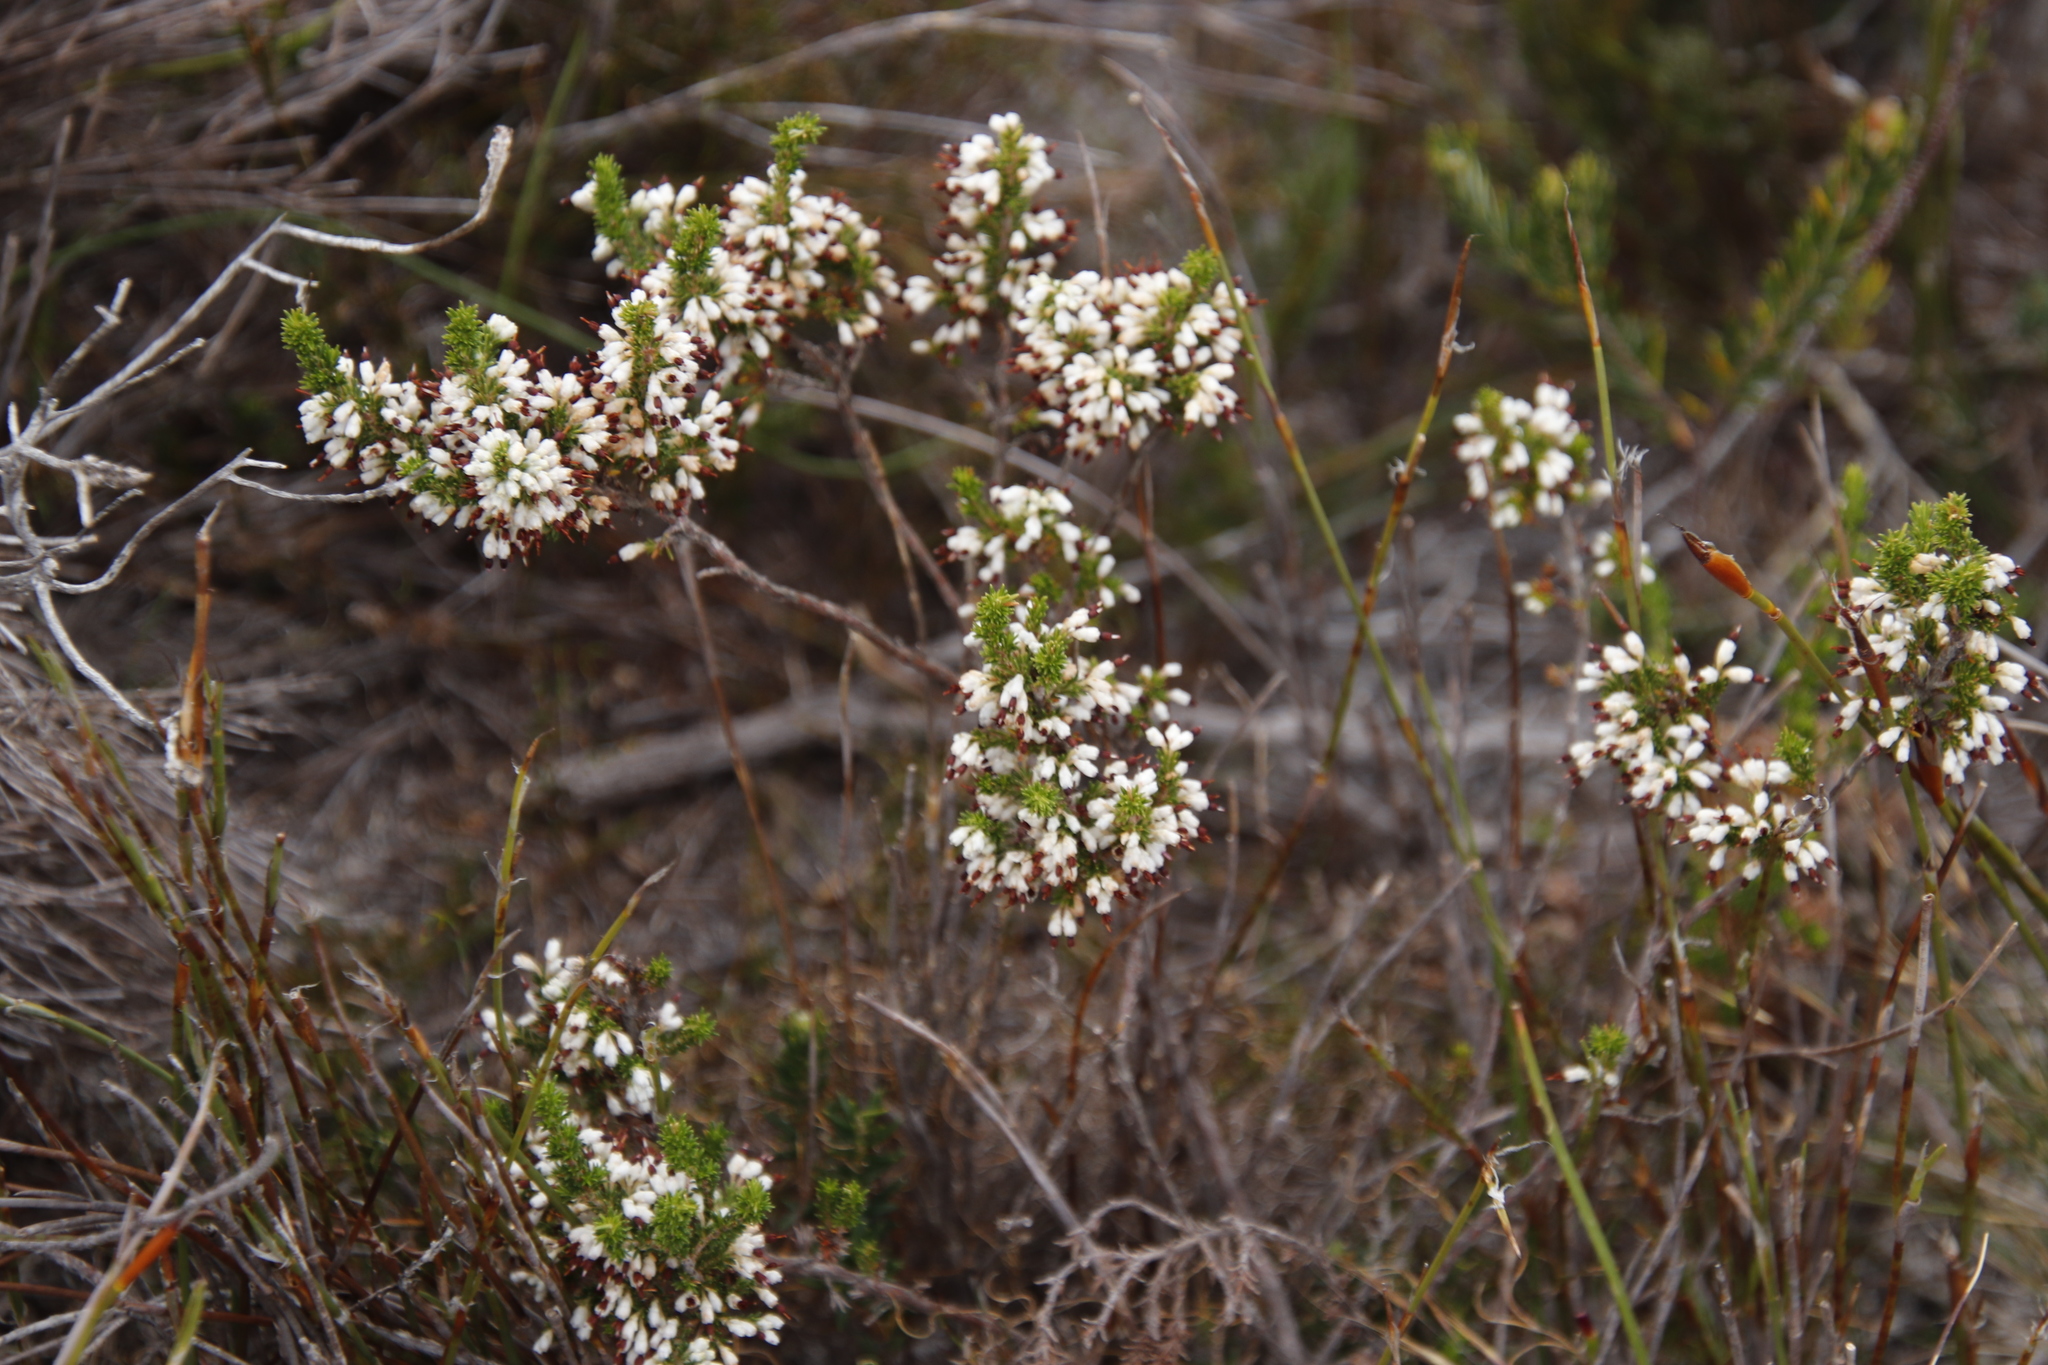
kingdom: Plantae
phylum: Tracheophyta
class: Magnoliopsida
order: Ericales
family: Ericaceae
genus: Erica
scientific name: Erica imbricata
